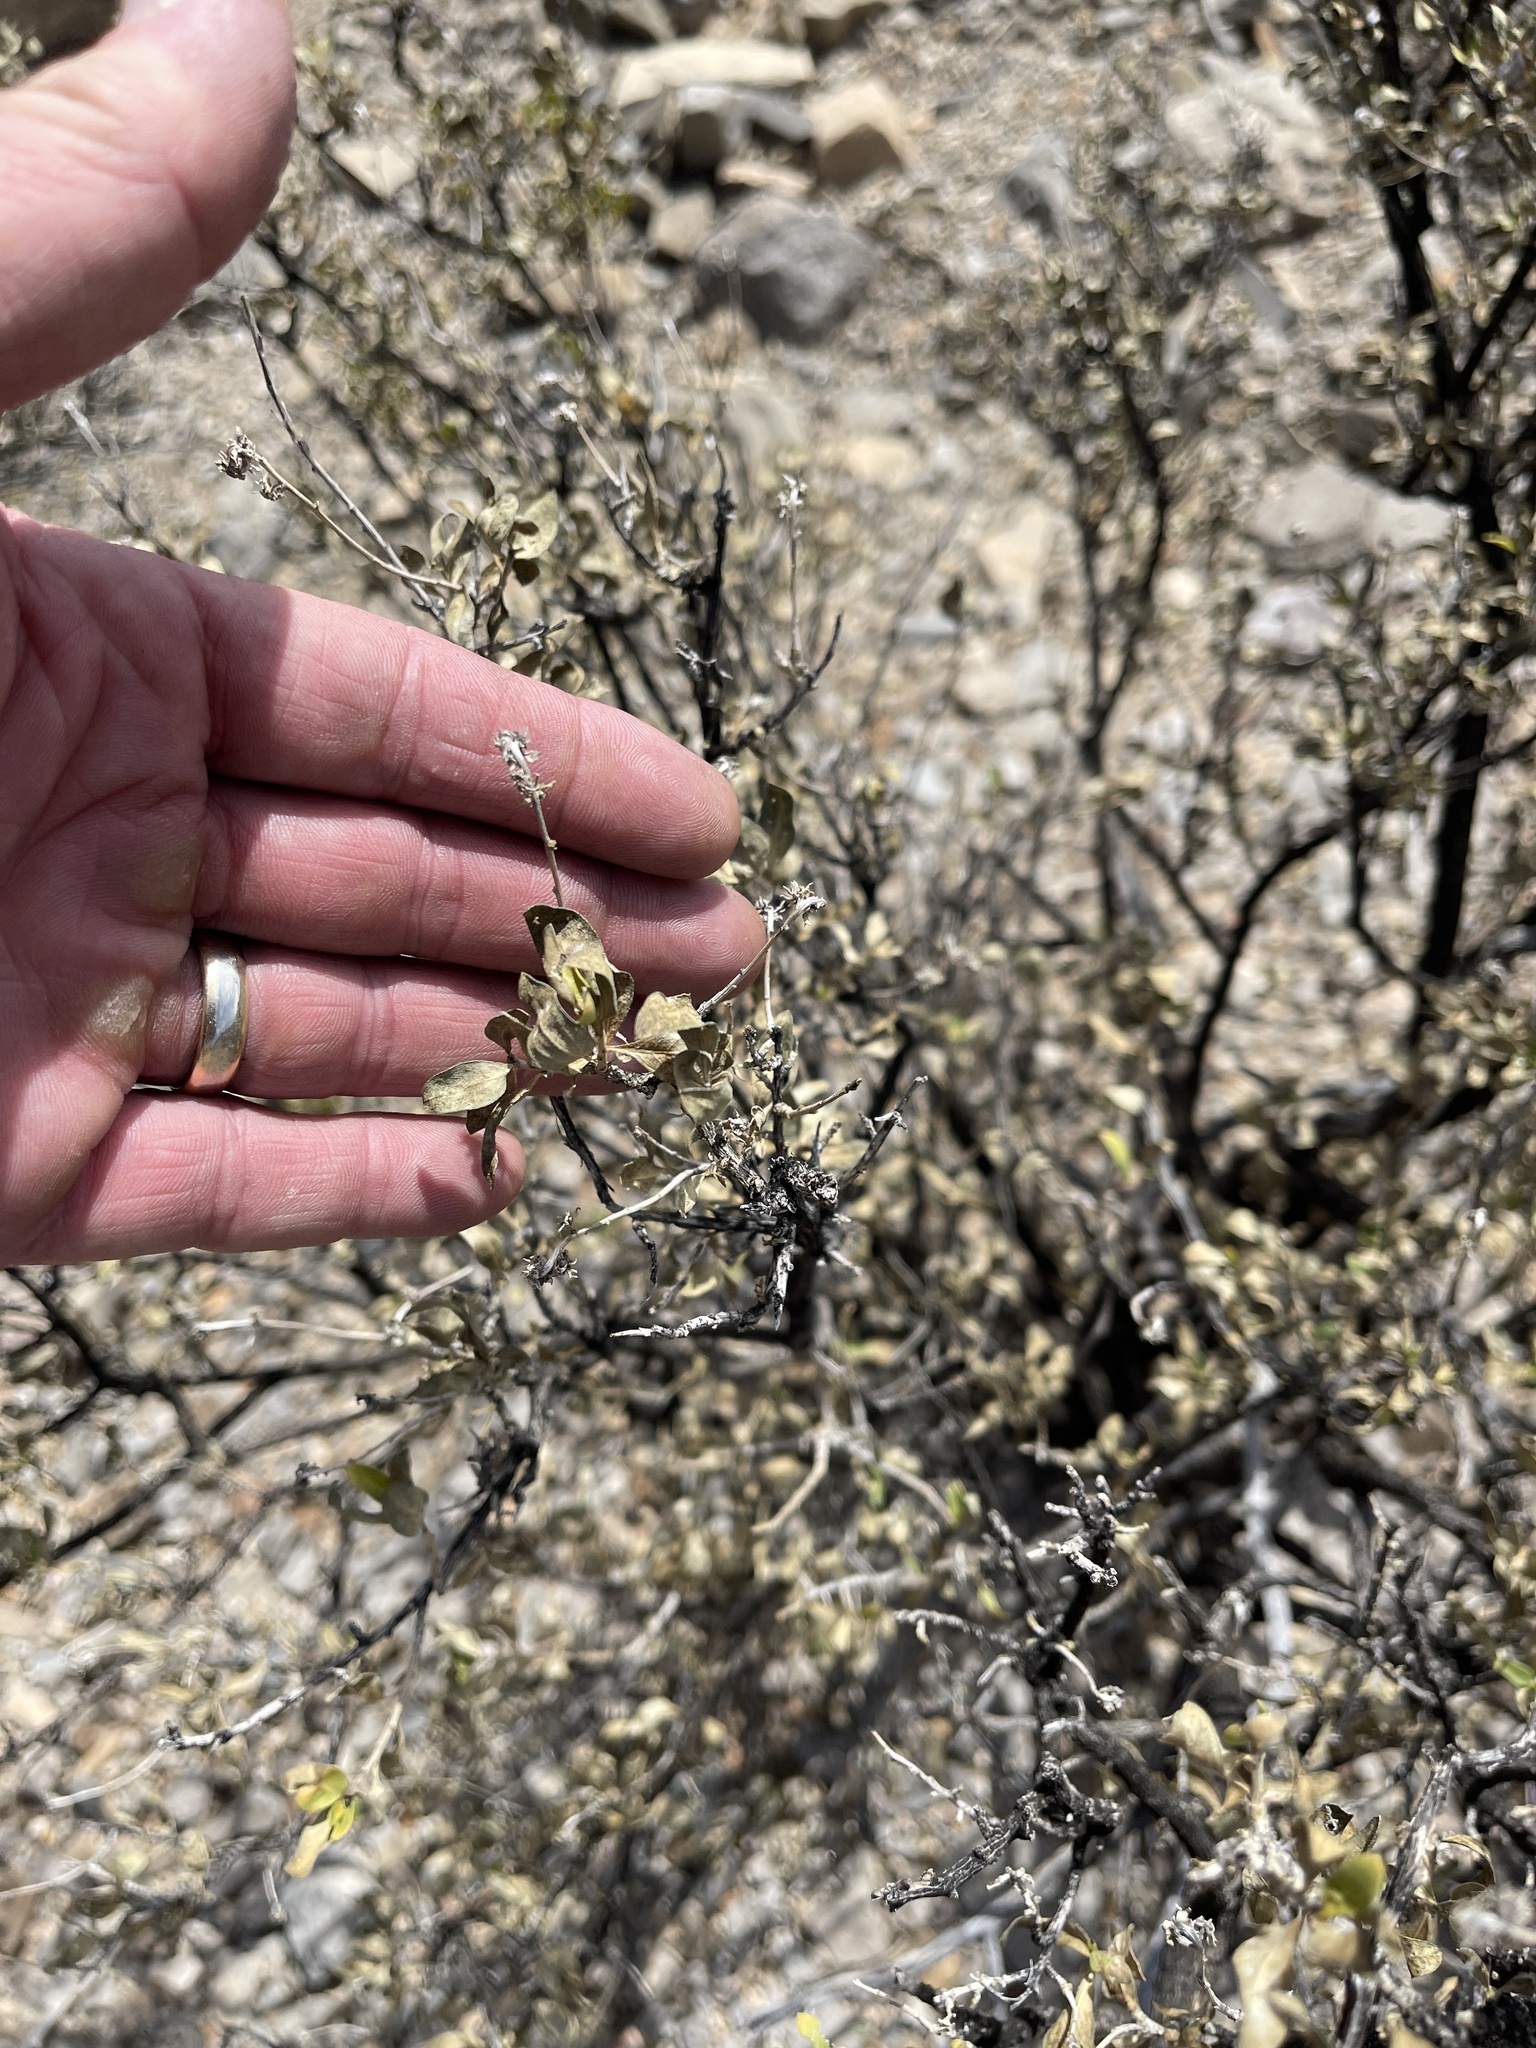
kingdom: Plantae
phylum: Tracheophyta
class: Magnoliopsida
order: Asterales
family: Asteraceae
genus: Flourensia
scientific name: Flourensia cernua
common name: Varnishbush
